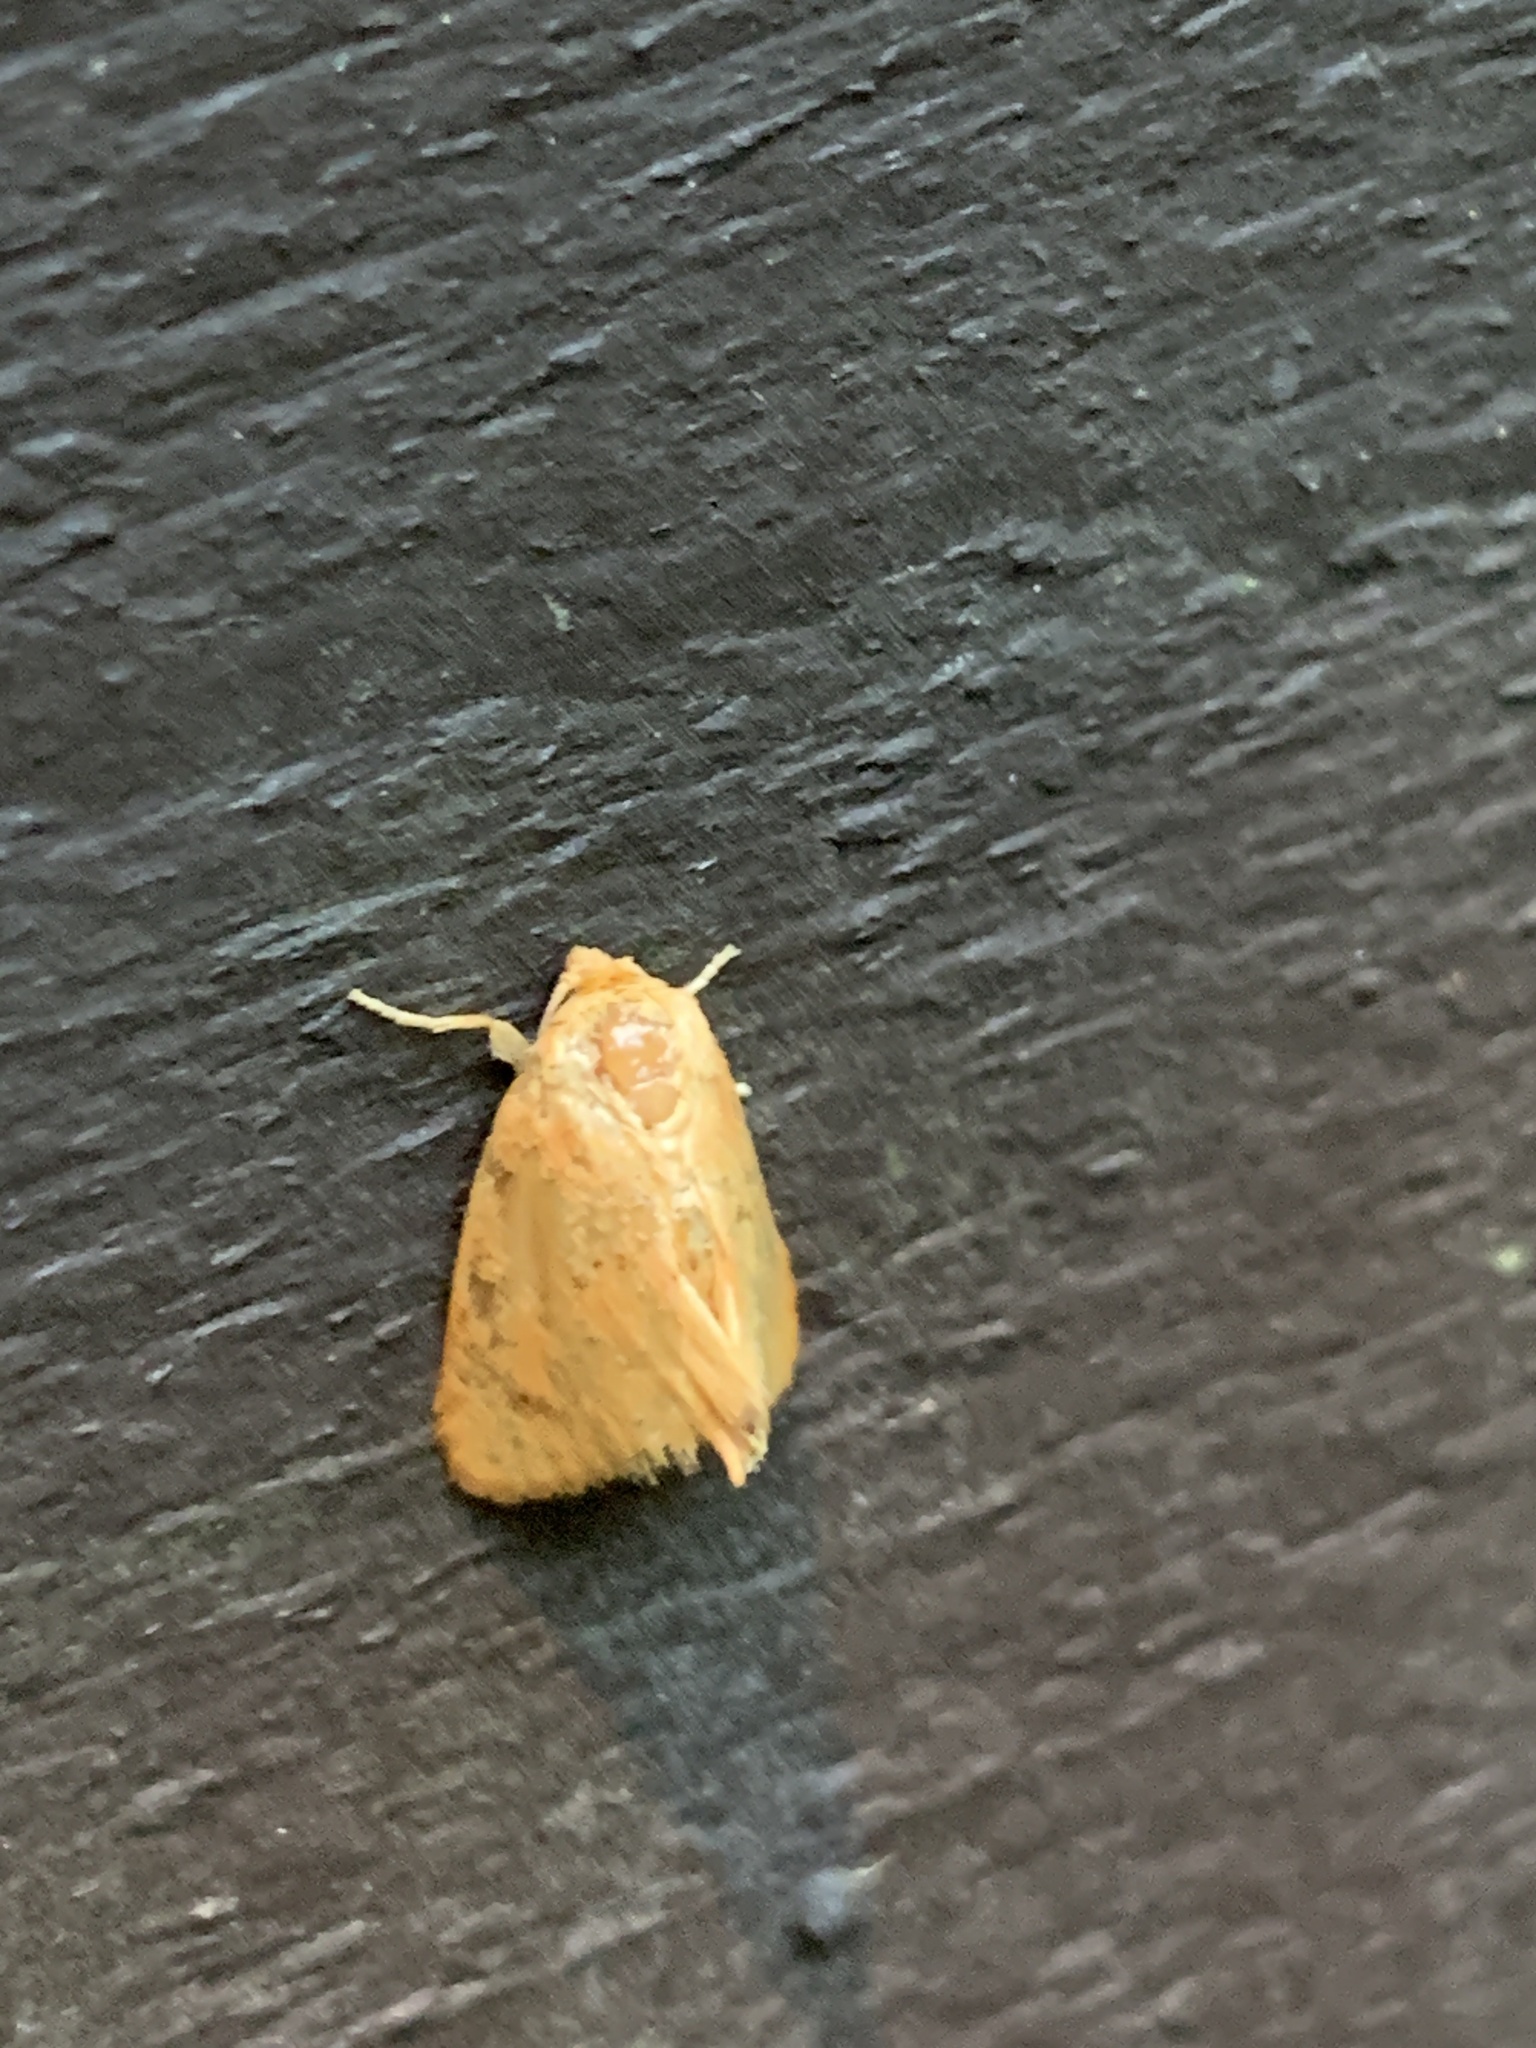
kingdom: Animalia
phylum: Arthropoda
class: Insecta
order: Lepidoptera
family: Limacodidae
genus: Tortricidia
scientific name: Tortricidia pallida
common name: Red-crossed button slug moth
